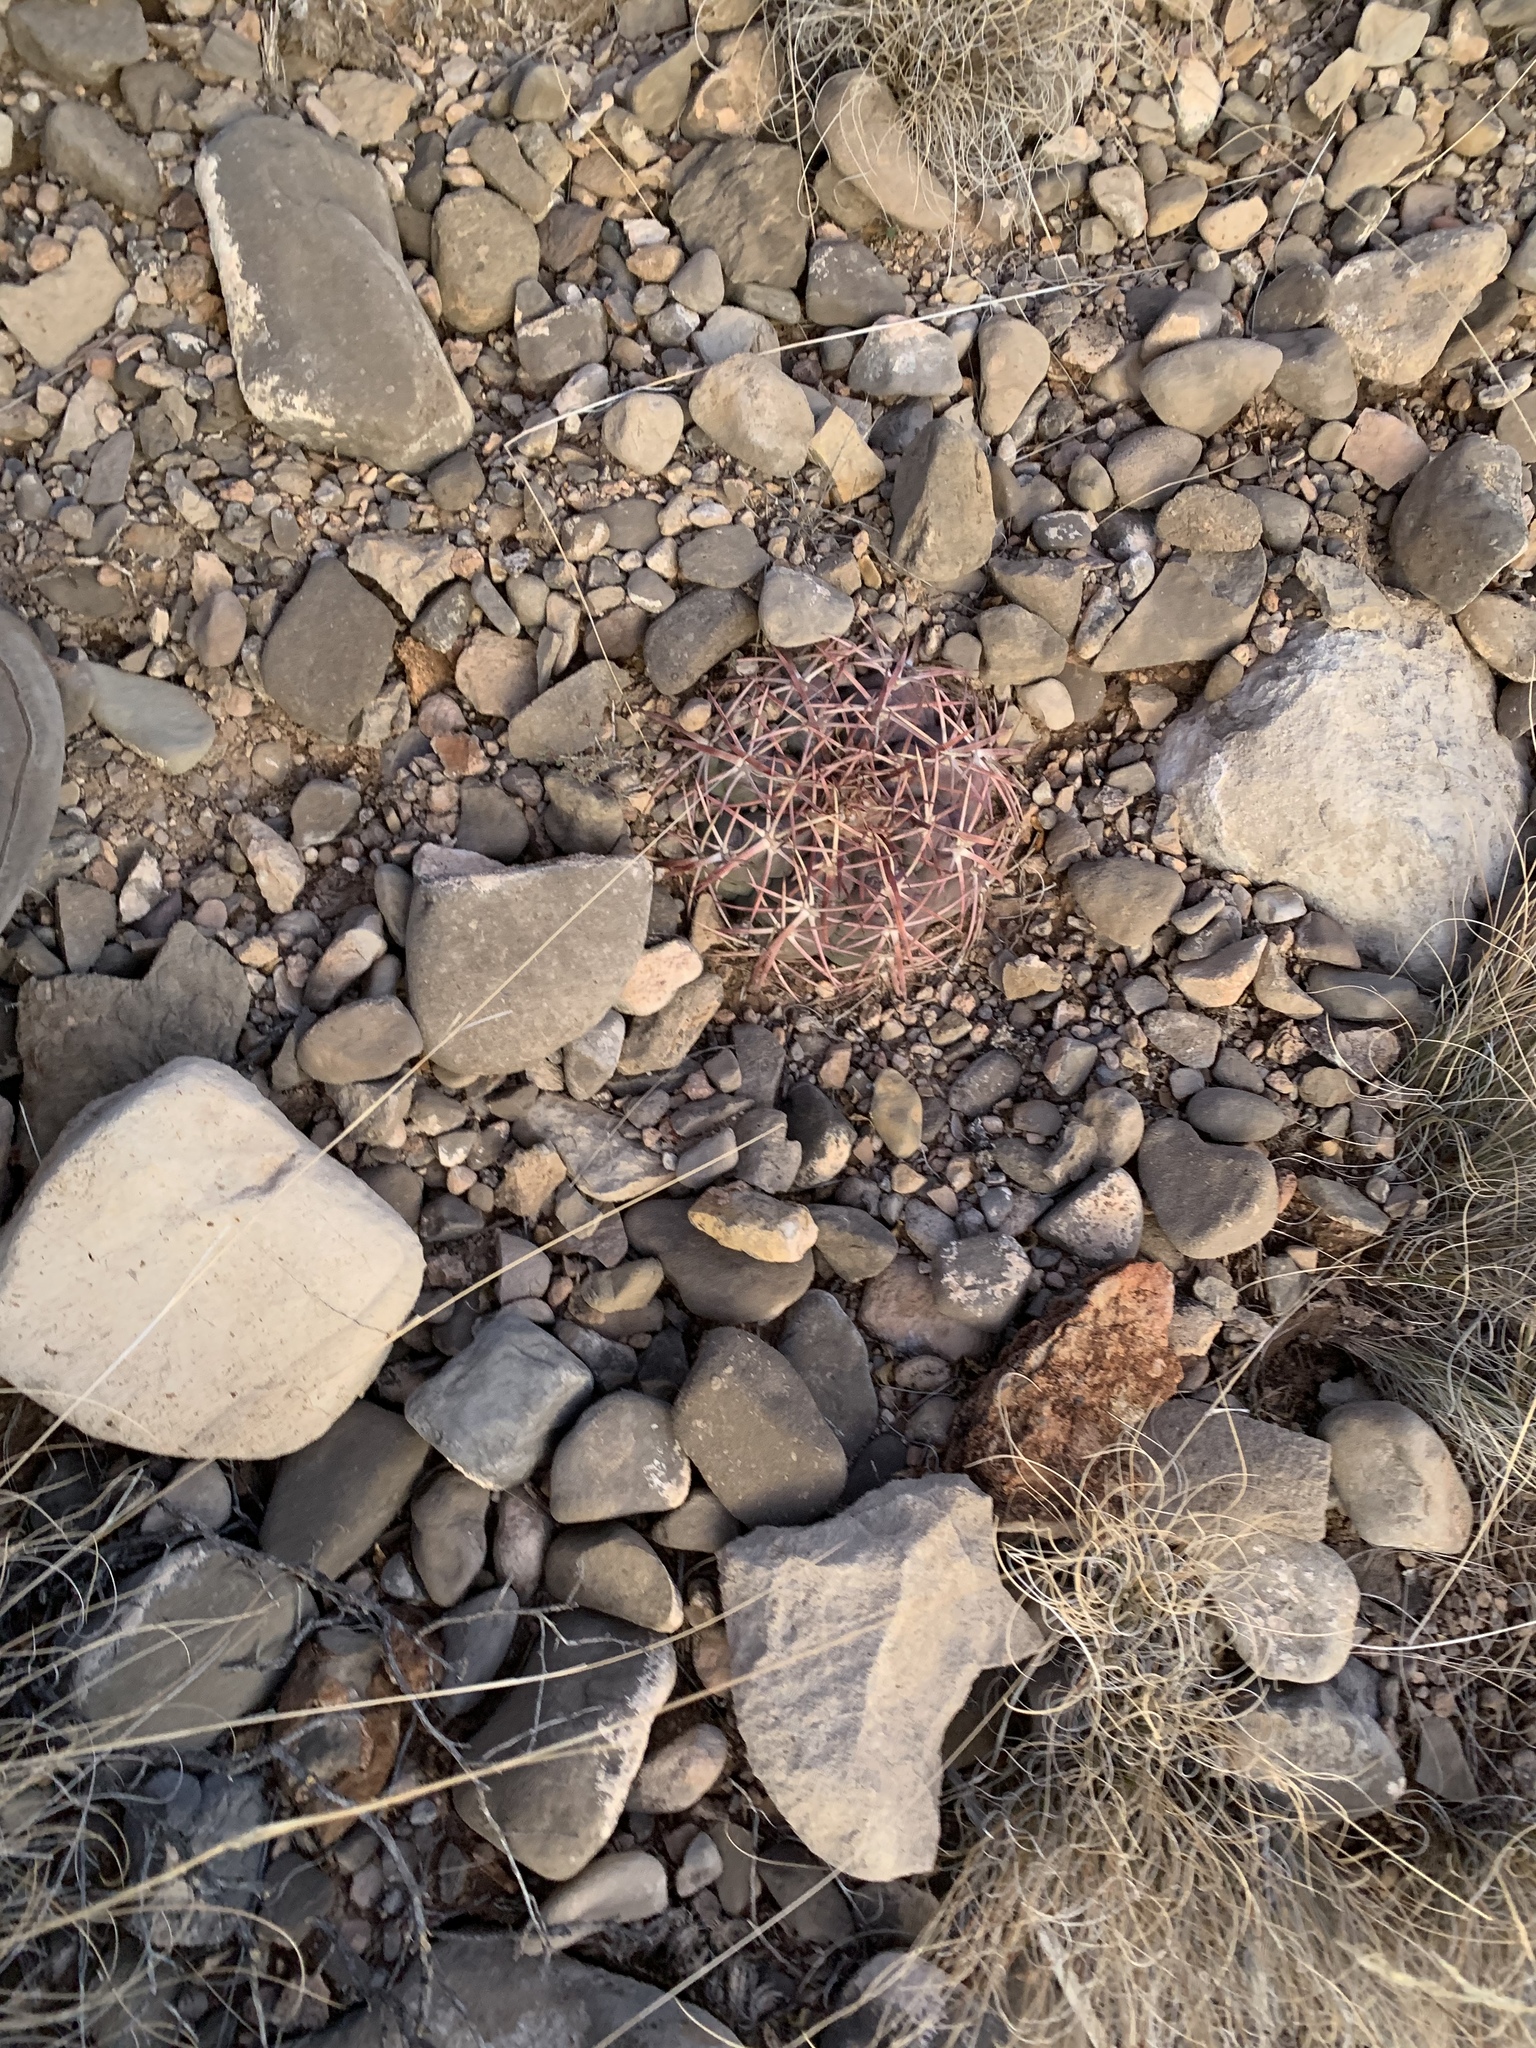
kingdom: Plantae
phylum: Tracheophyta
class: Magnoliopsida
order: Caryophyllales
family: Cactaceae
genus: Echinocactus
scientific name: Echinocactus horizonthalonius
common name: Devilshead
